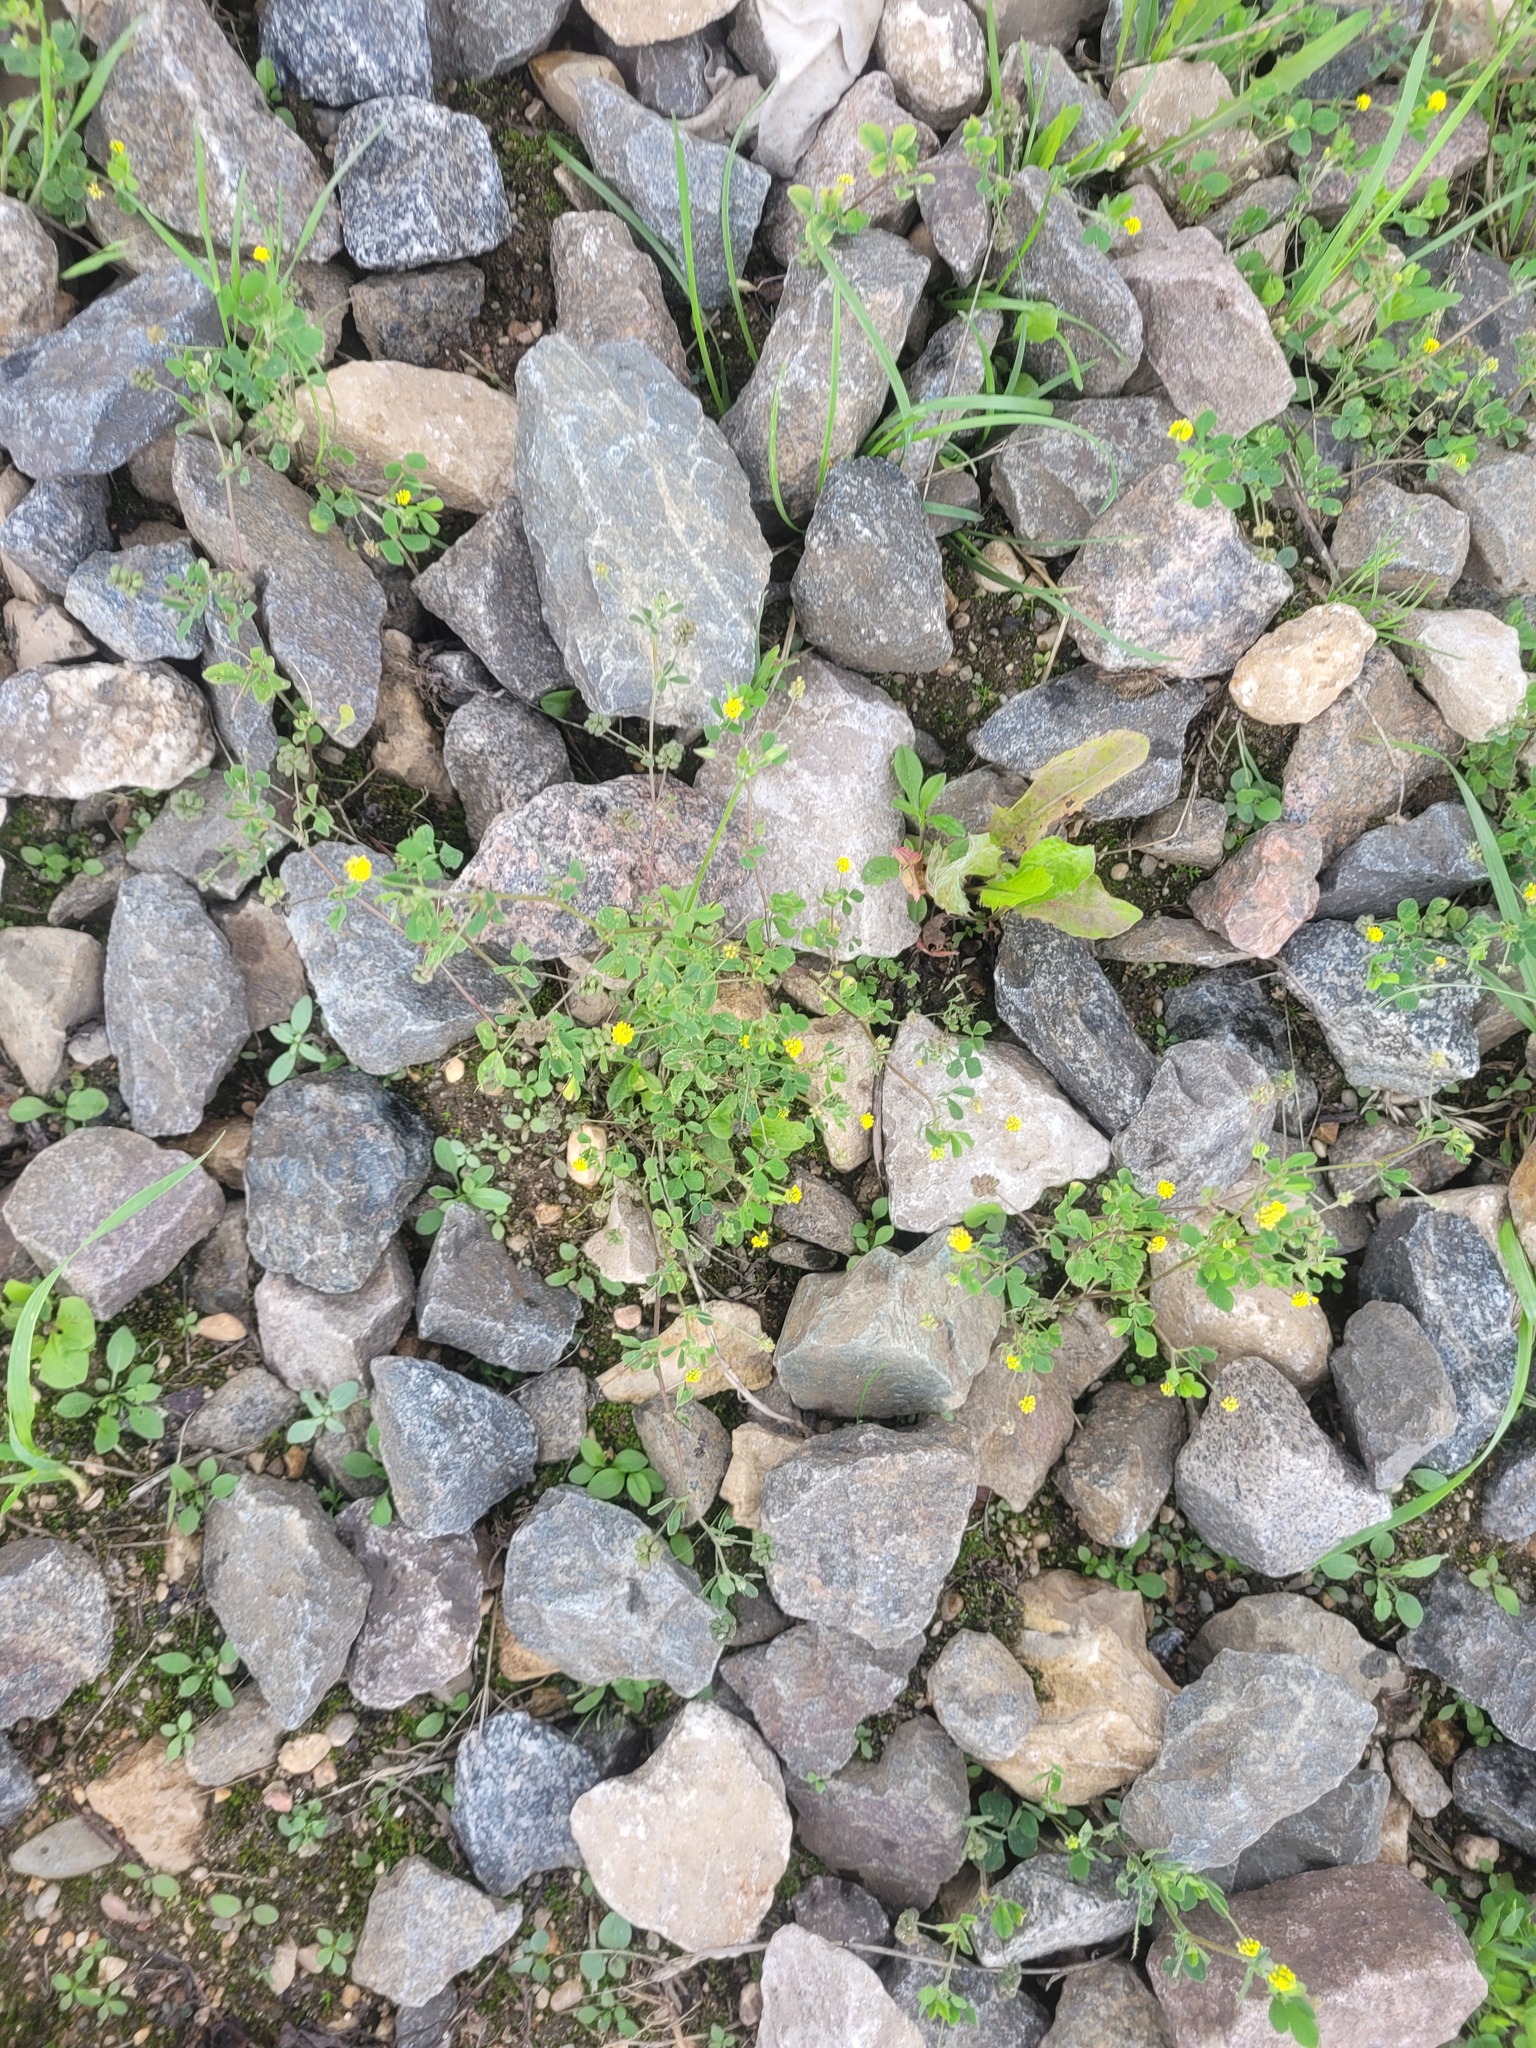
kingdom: Plantae
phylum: Tracheophyta
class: Magnoliopsida
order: Fabales
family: Fabaceae
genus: Medicago
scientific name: Medicago lupulina
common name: Black medick
